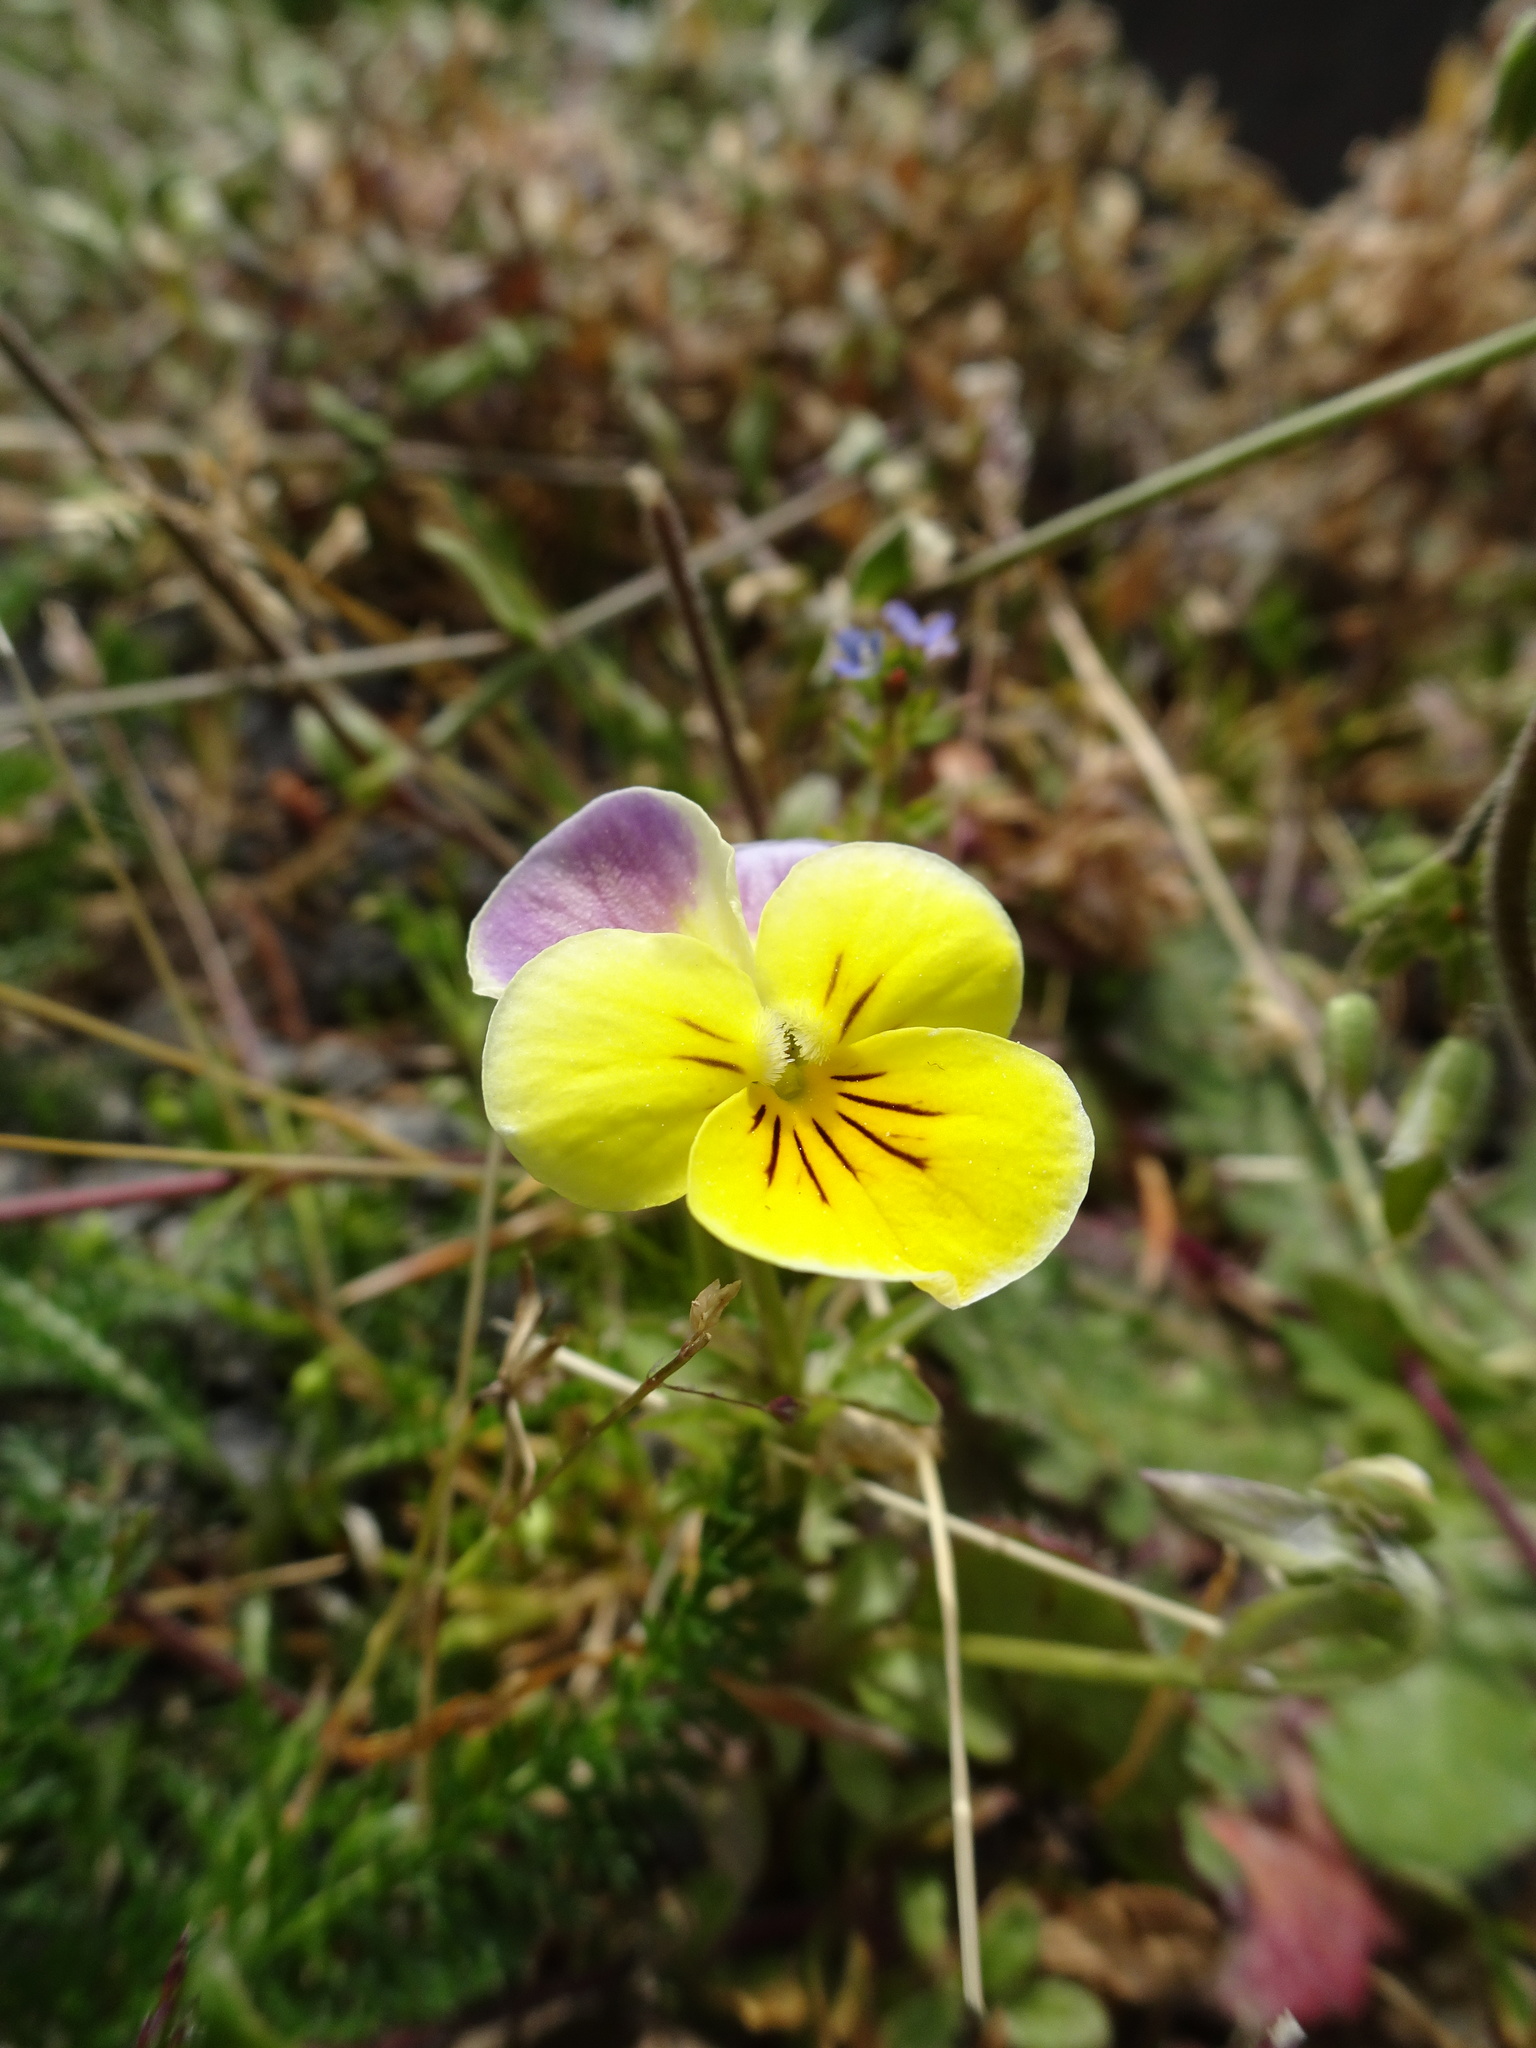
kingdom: Plantae
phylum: Tracheophyta
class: Magnoliopsida
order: Malpighiales
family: Violaceae
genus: Viola
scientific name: Viola wittrockiana
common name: Garden pansy
